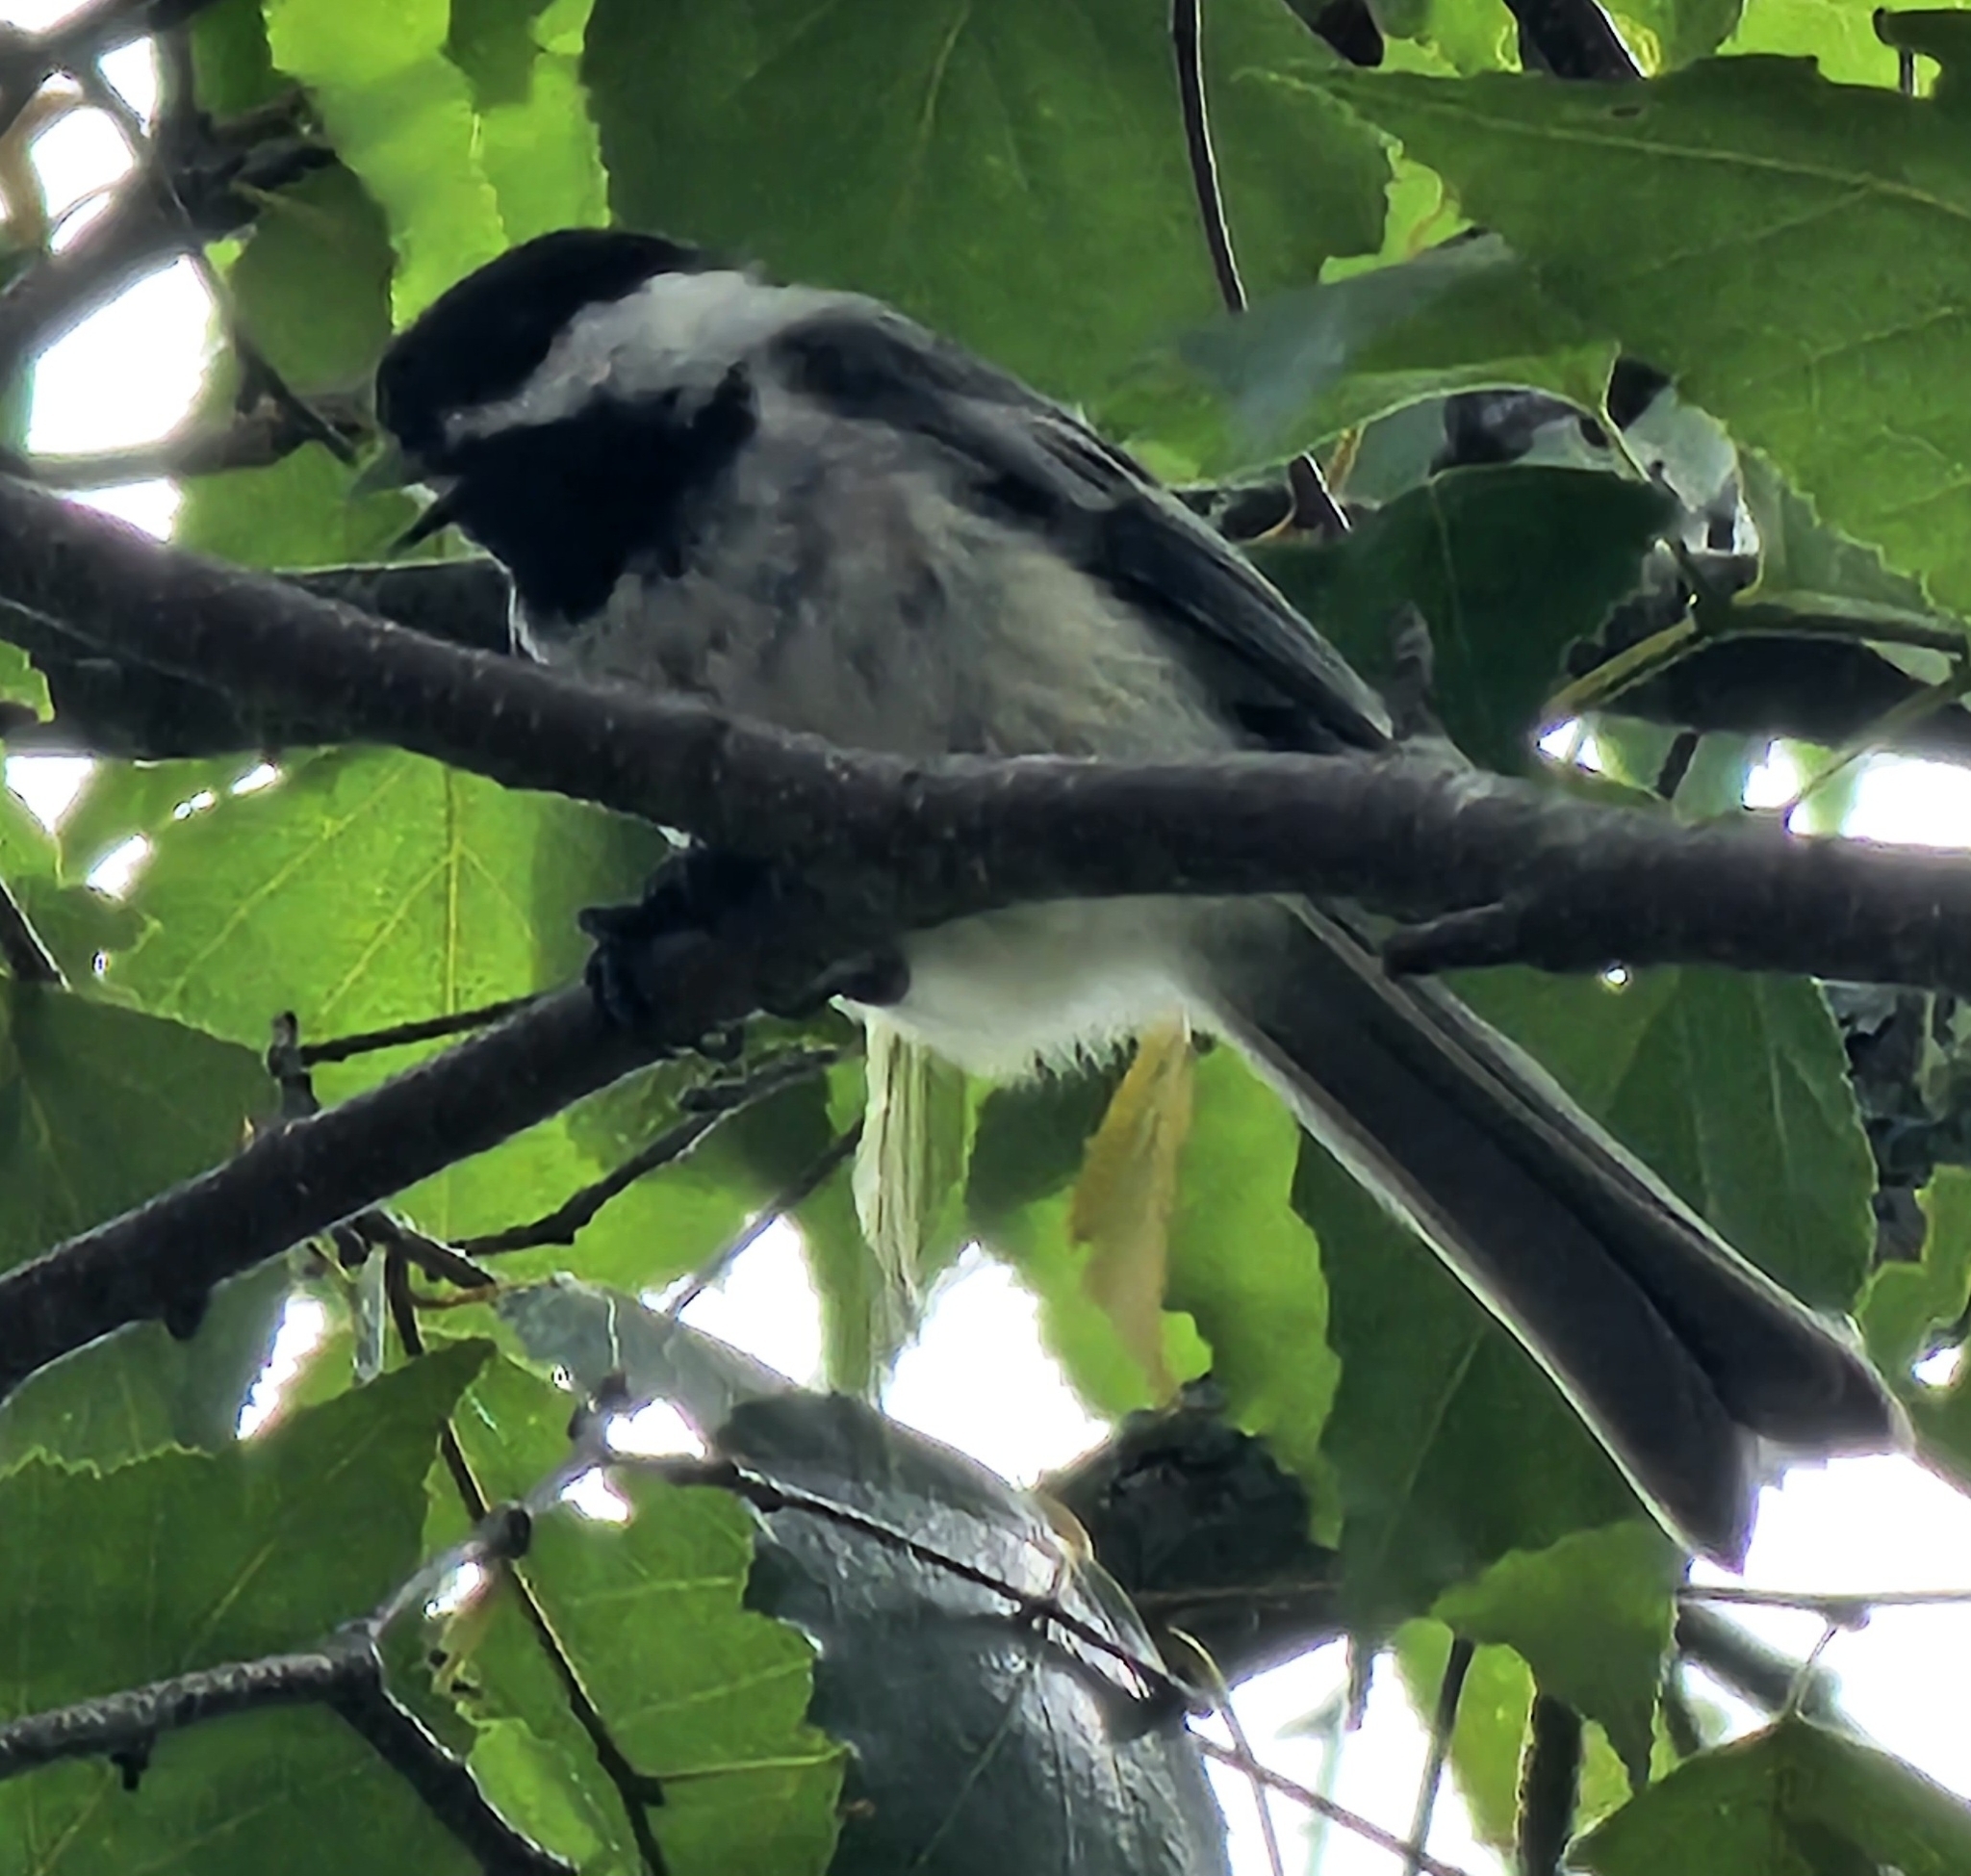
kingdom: Animalia
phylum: Chordata
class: Aves
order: Passeriformes
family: Paridae
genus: Poecile
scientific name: Poecile atricapillus
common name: Black-capped chickadee
